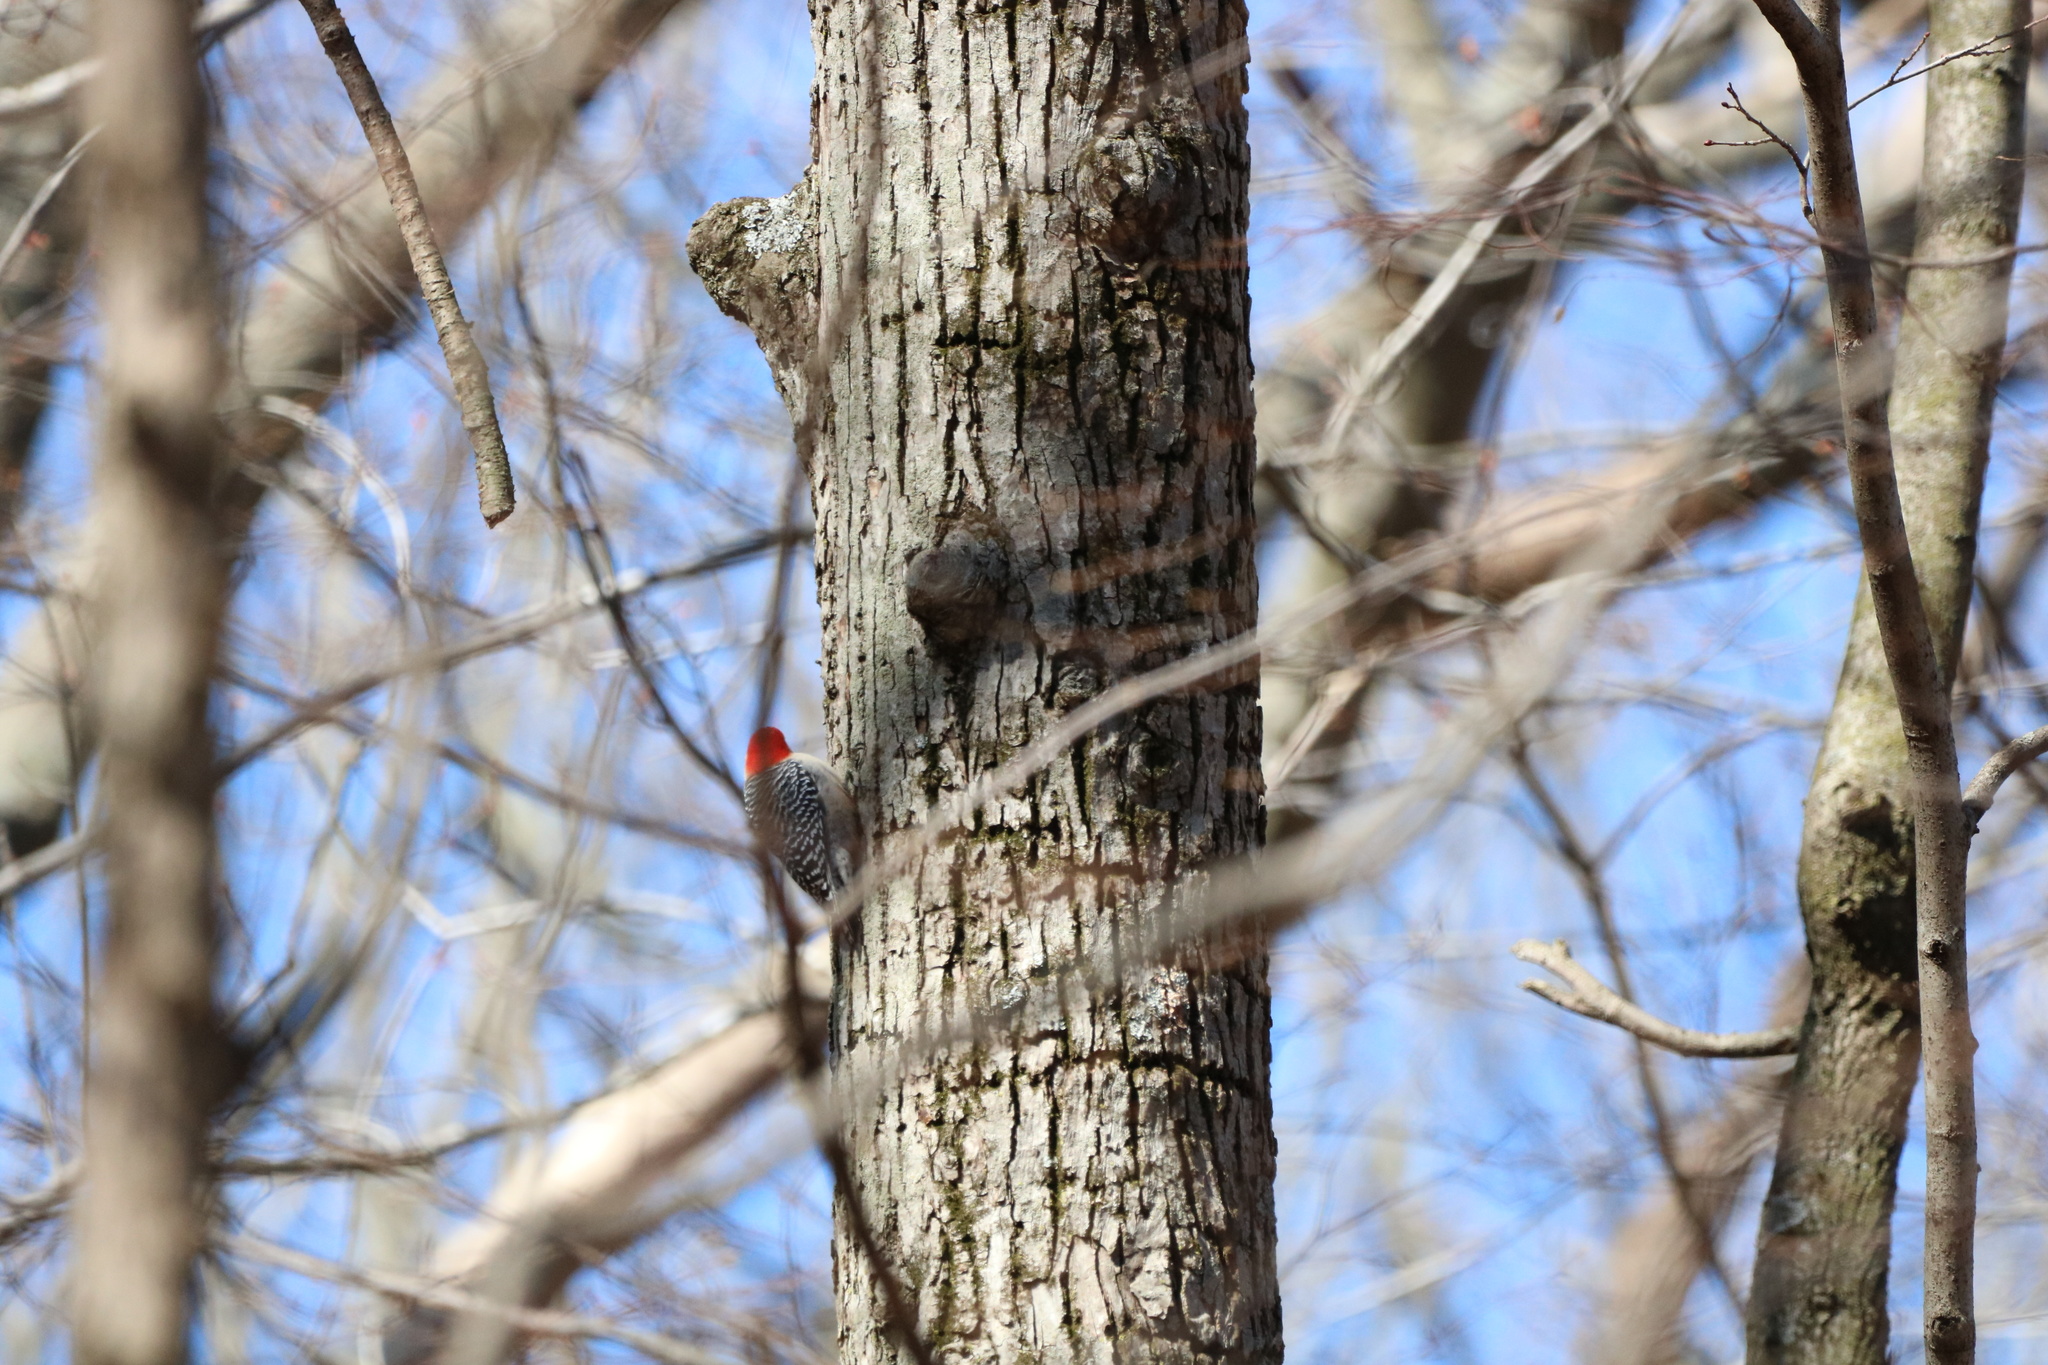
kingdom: Animalia
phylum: Chordata
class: Aves
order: Piciformes
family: Picidae
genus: Melanerpes
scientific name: Melanerpes carolinus
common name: Red-bellied woodpecker
